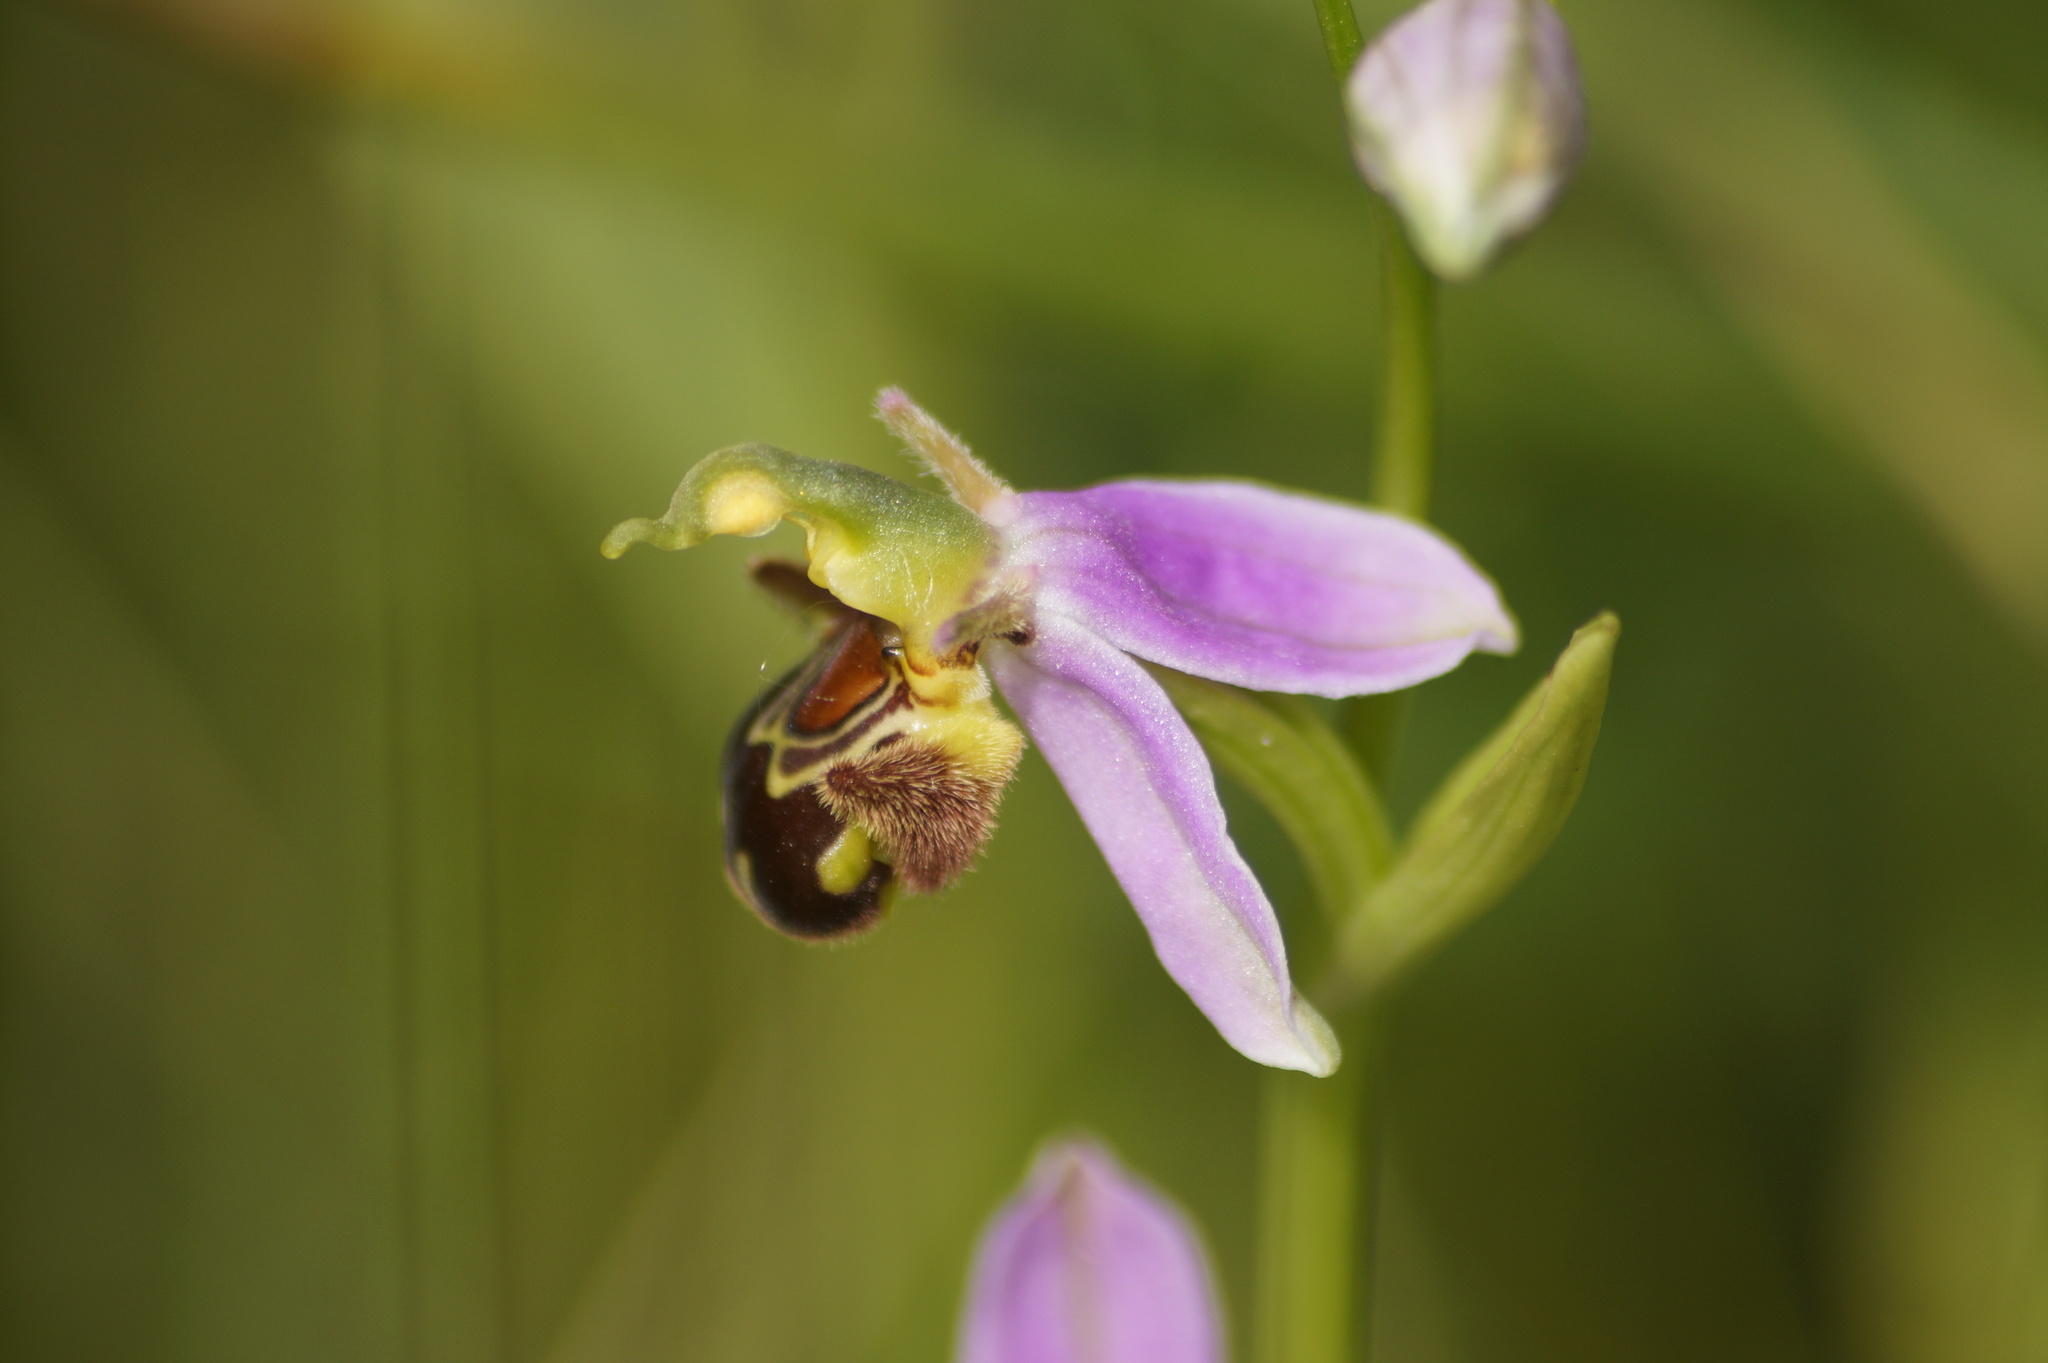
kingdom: Plantae
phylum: Tracheophyta
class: Liliopsida
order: Asparagales
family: Orchidaceae
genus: Ophrys
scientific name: Ophrys apifera
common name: Bee orchid
